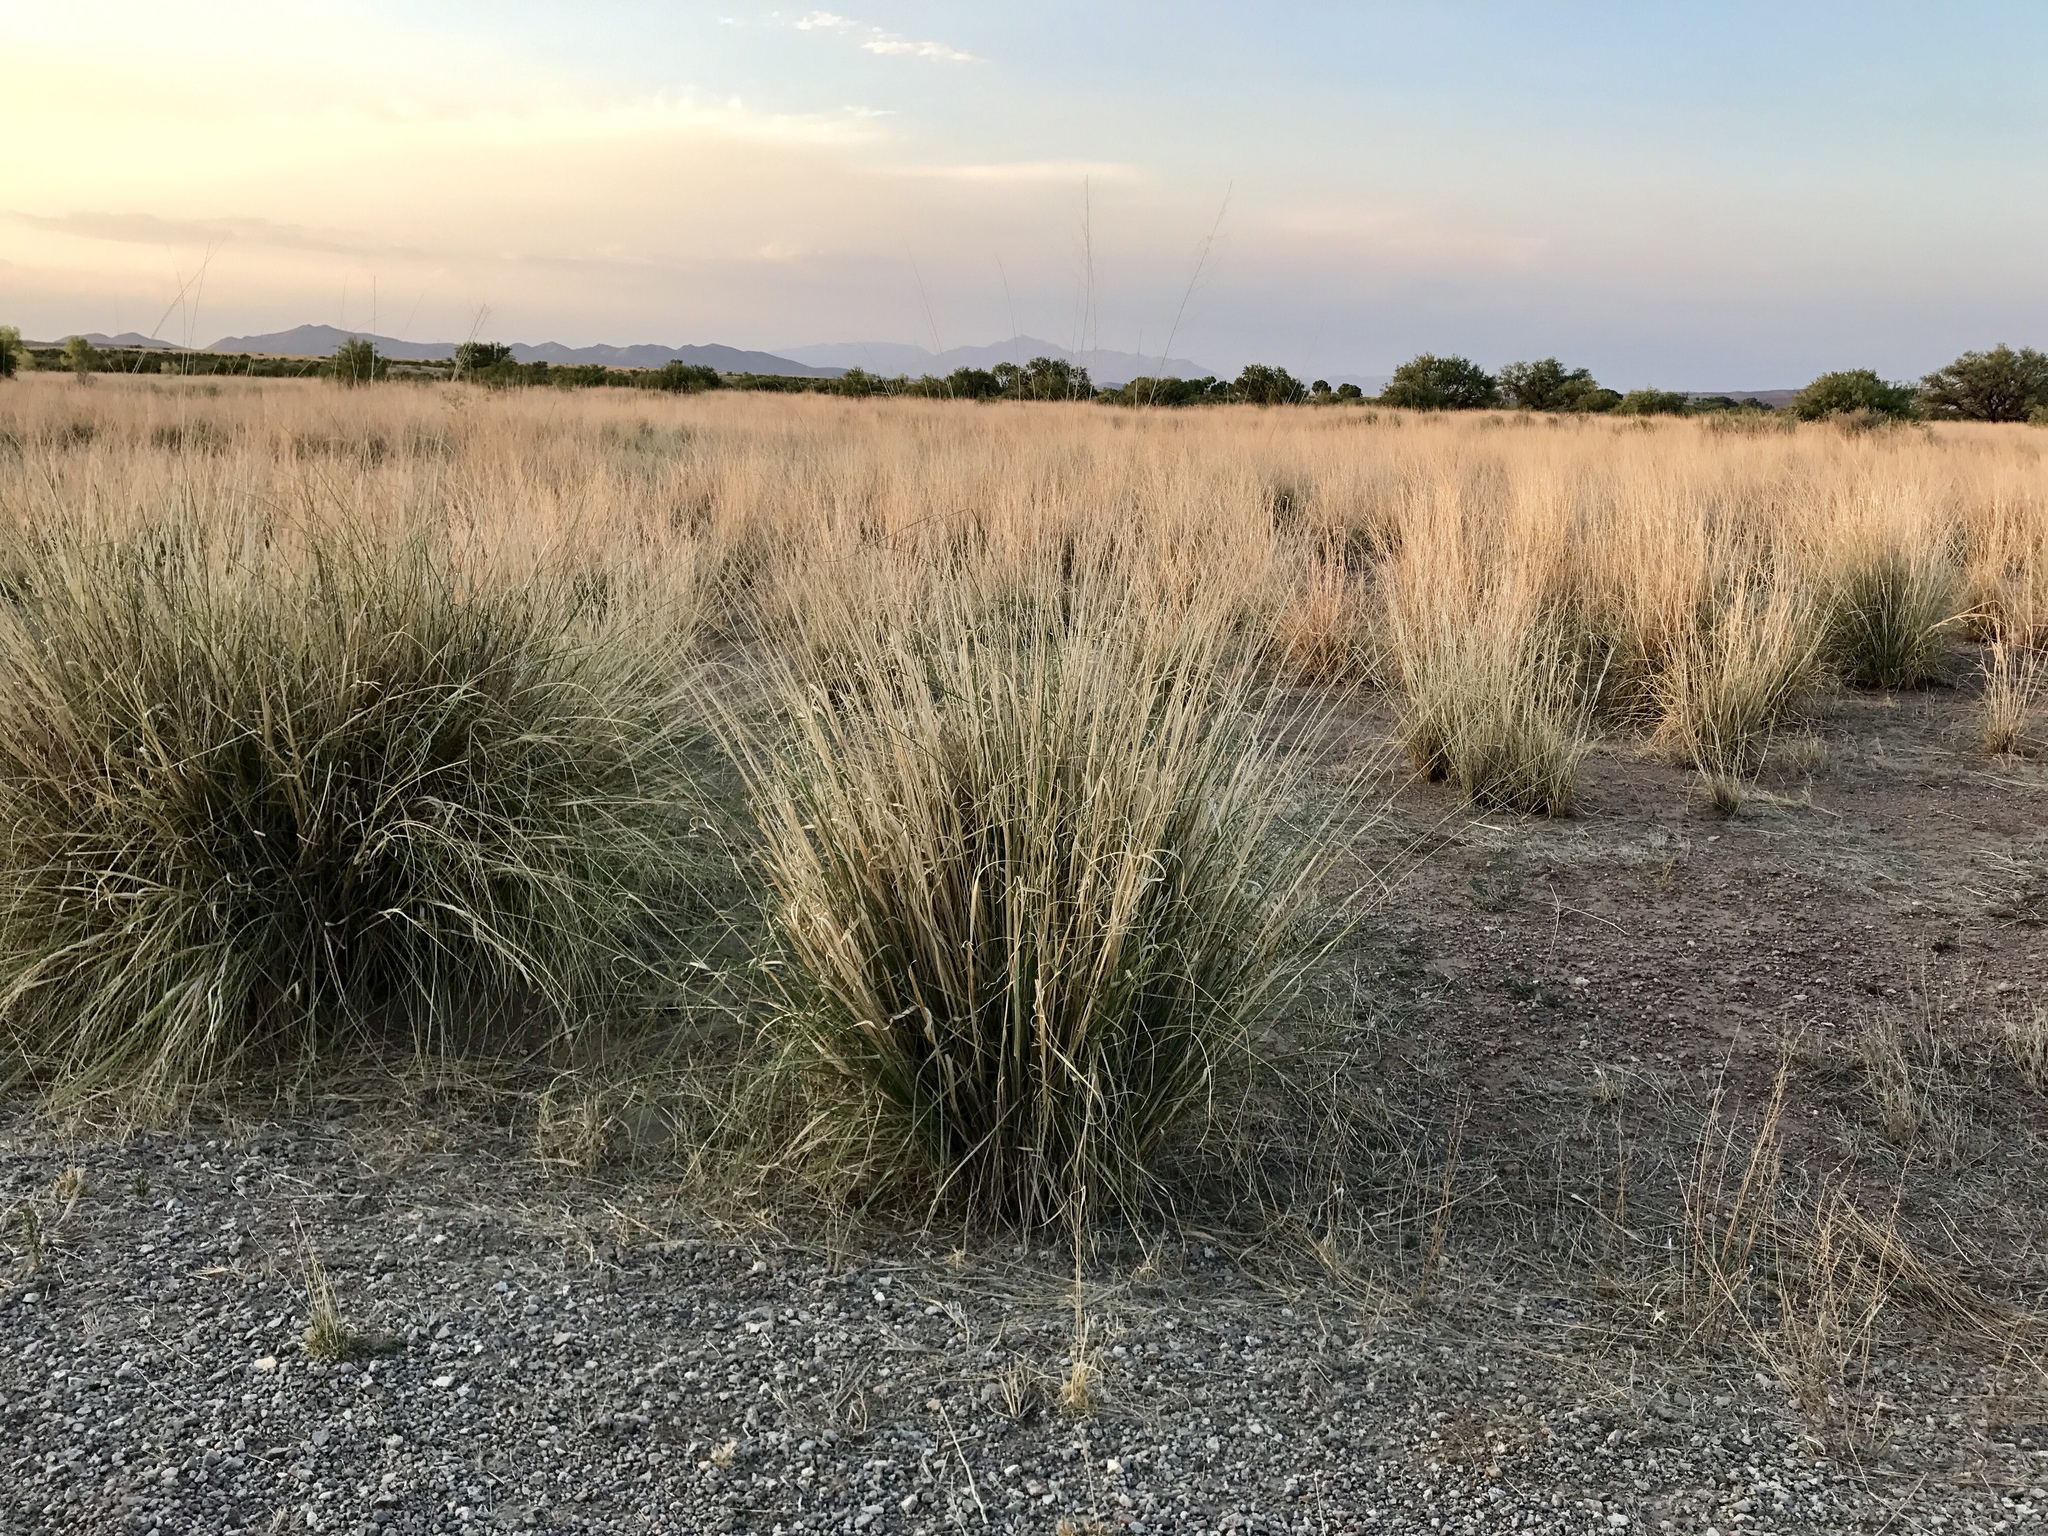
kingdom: Plantae
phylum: Tracheophyta
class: Liliopsida
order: Poales
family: Poaceae
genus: Sporobolus
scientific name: Sporobolus wrightii
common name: Big alkali sacaton
